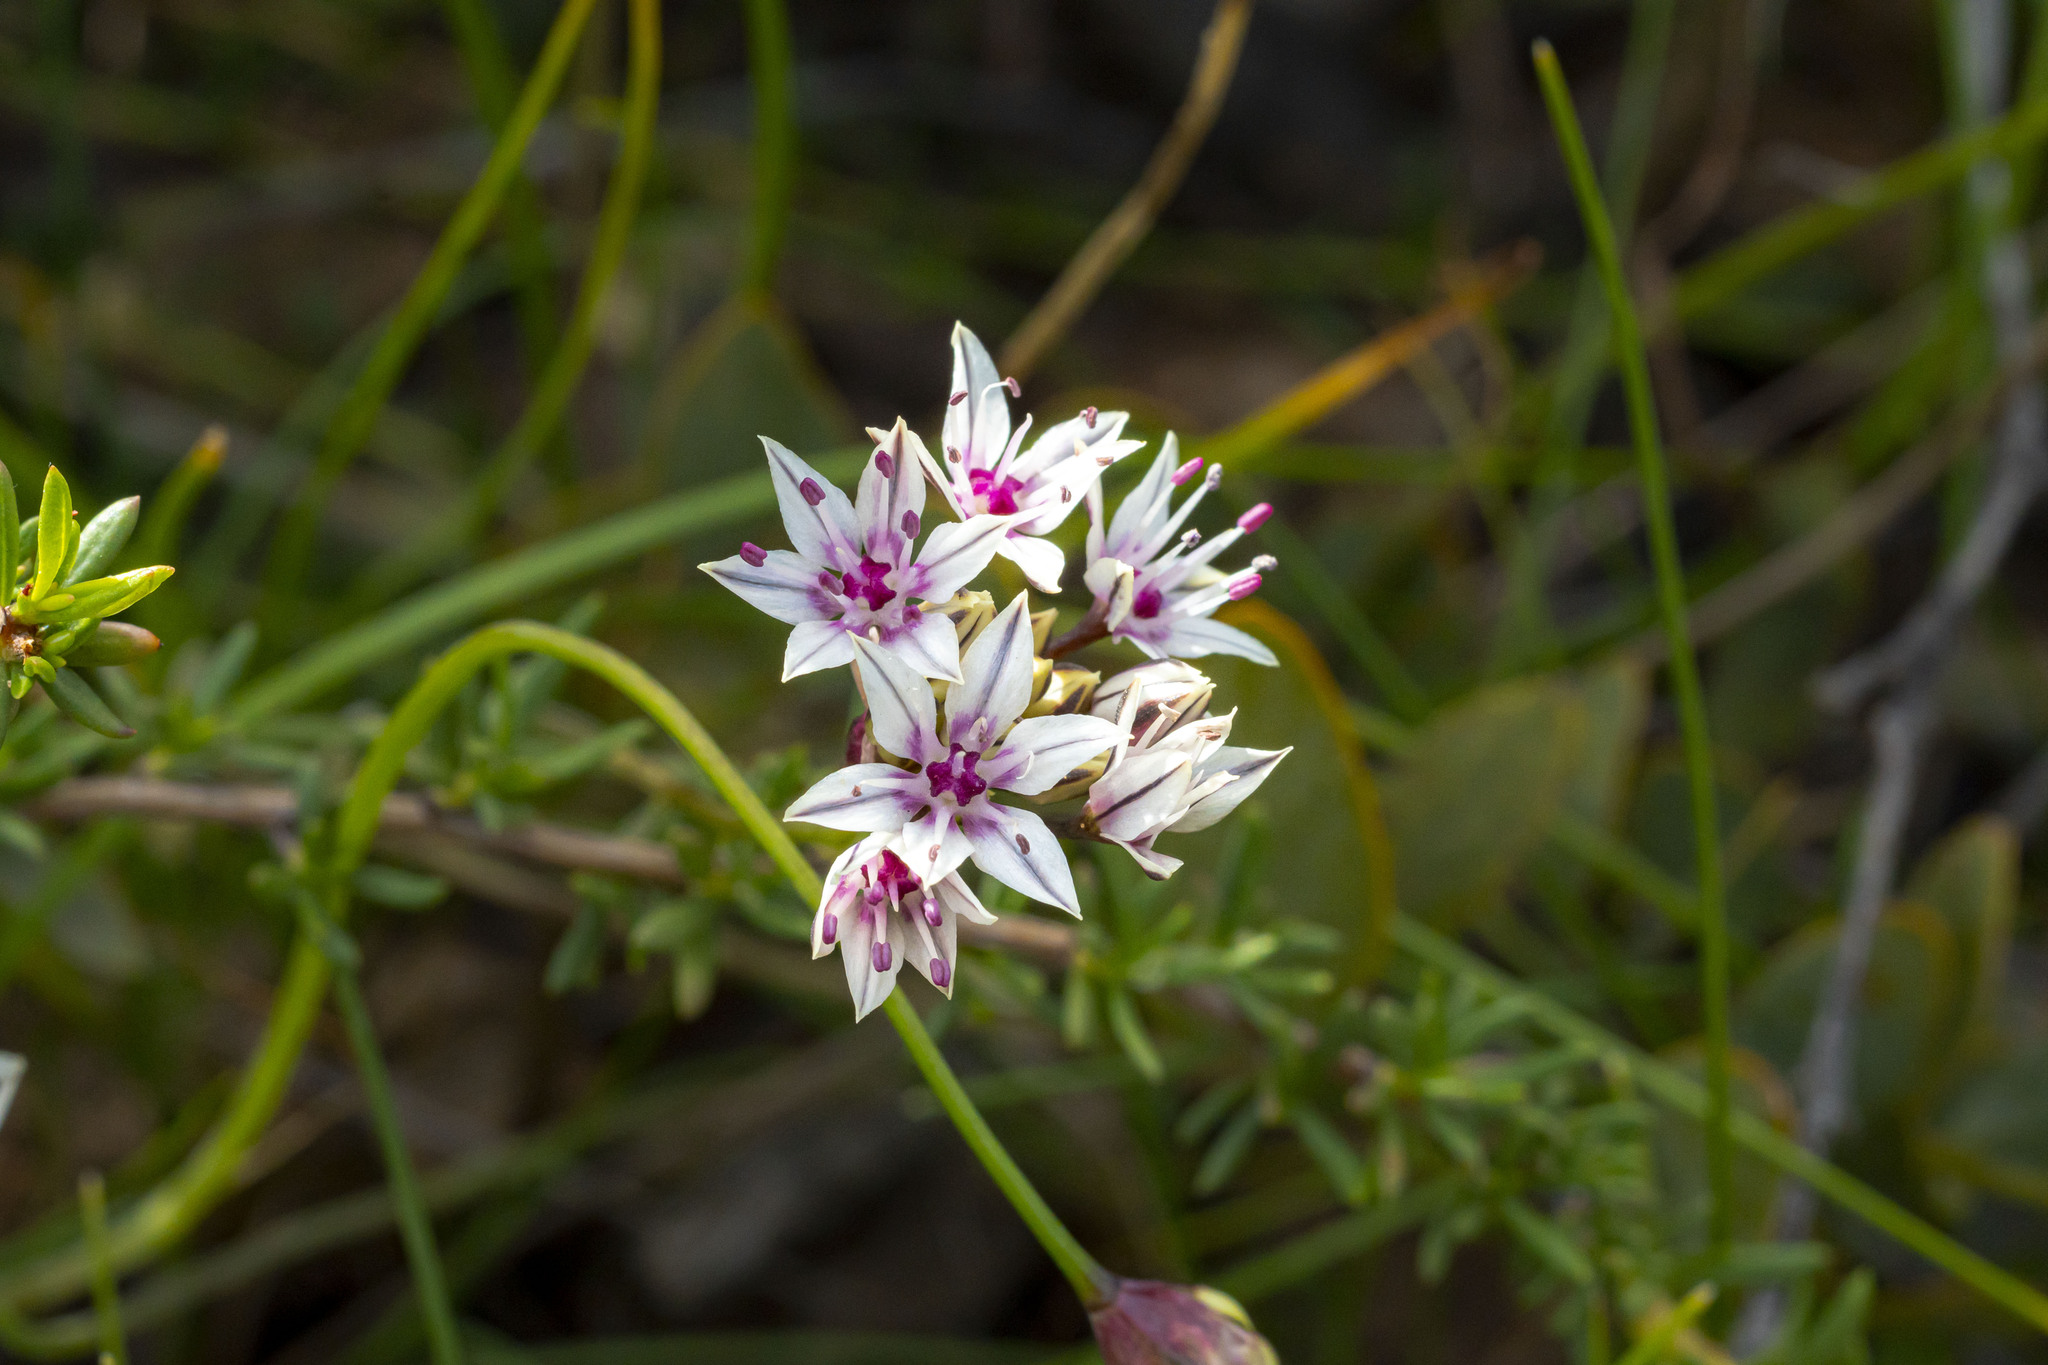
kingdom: Plantae
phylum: Tracheophyta
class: Liliopsida
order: Asparagales
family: Amaryllidaceae
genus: Allium
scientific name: Allium haematochiton
